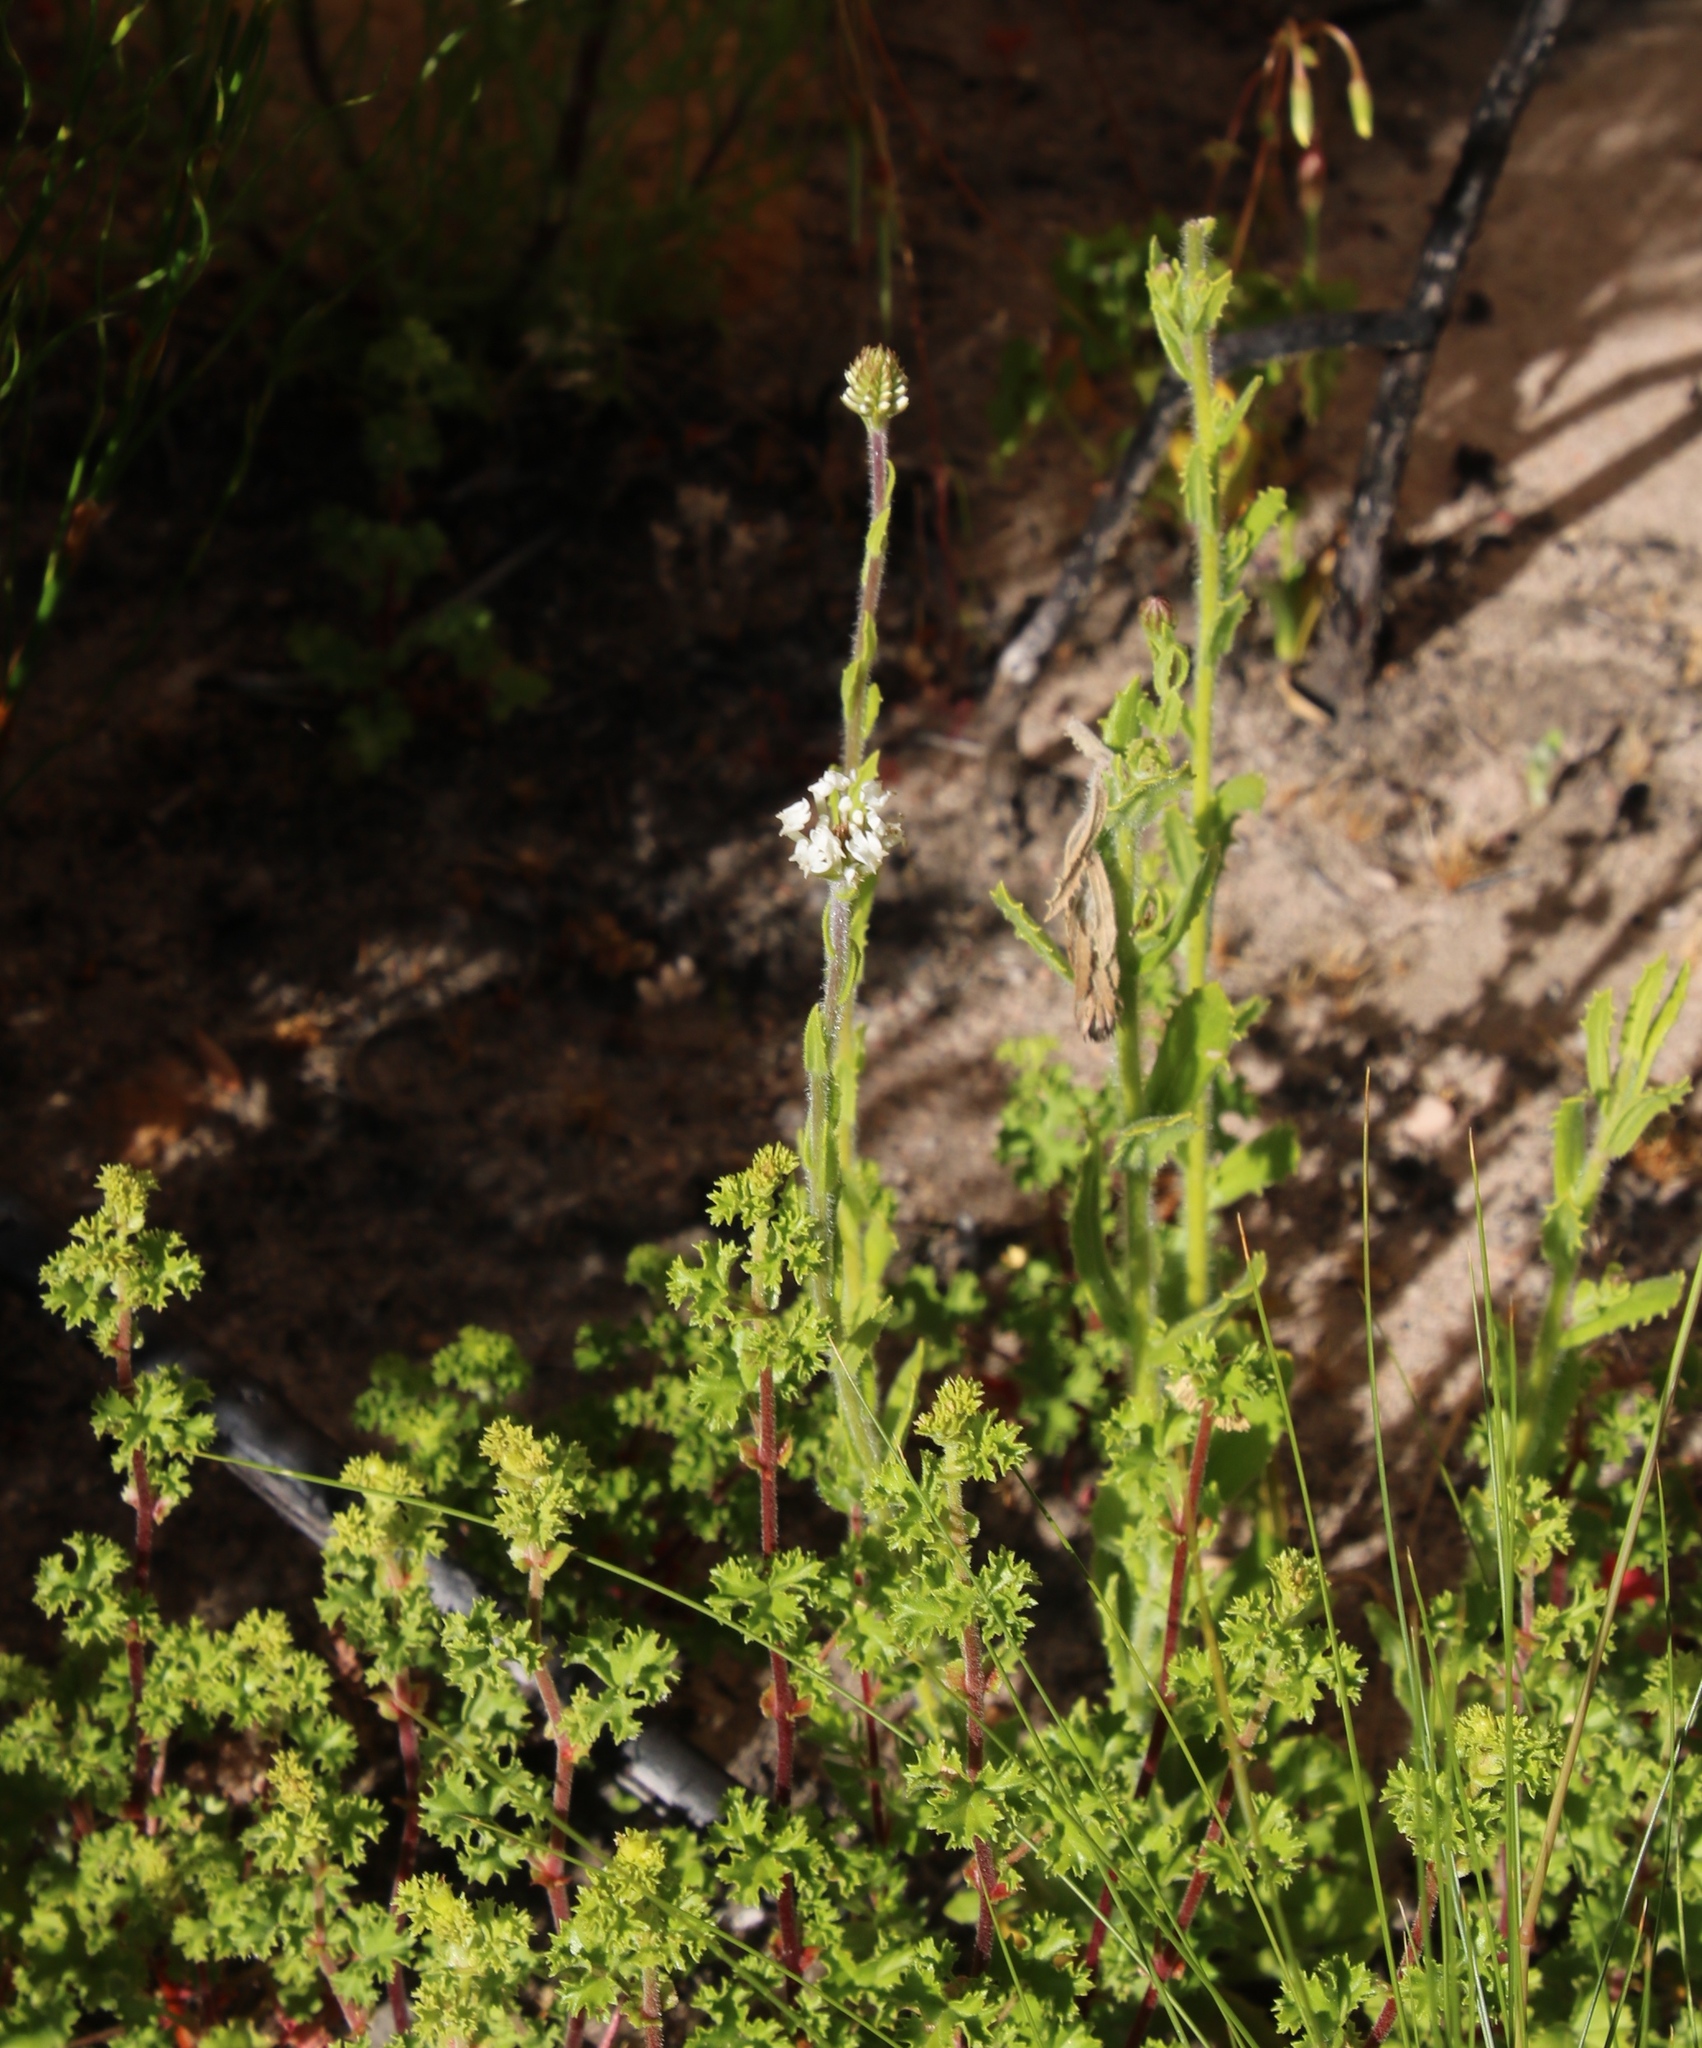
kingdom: Plantae
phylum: Tracheophyta
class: Magnoliopsida
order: Lamiales
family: Scrophulariaceae
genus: Hebenstretia
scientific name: Hebenstretia lanceolata
